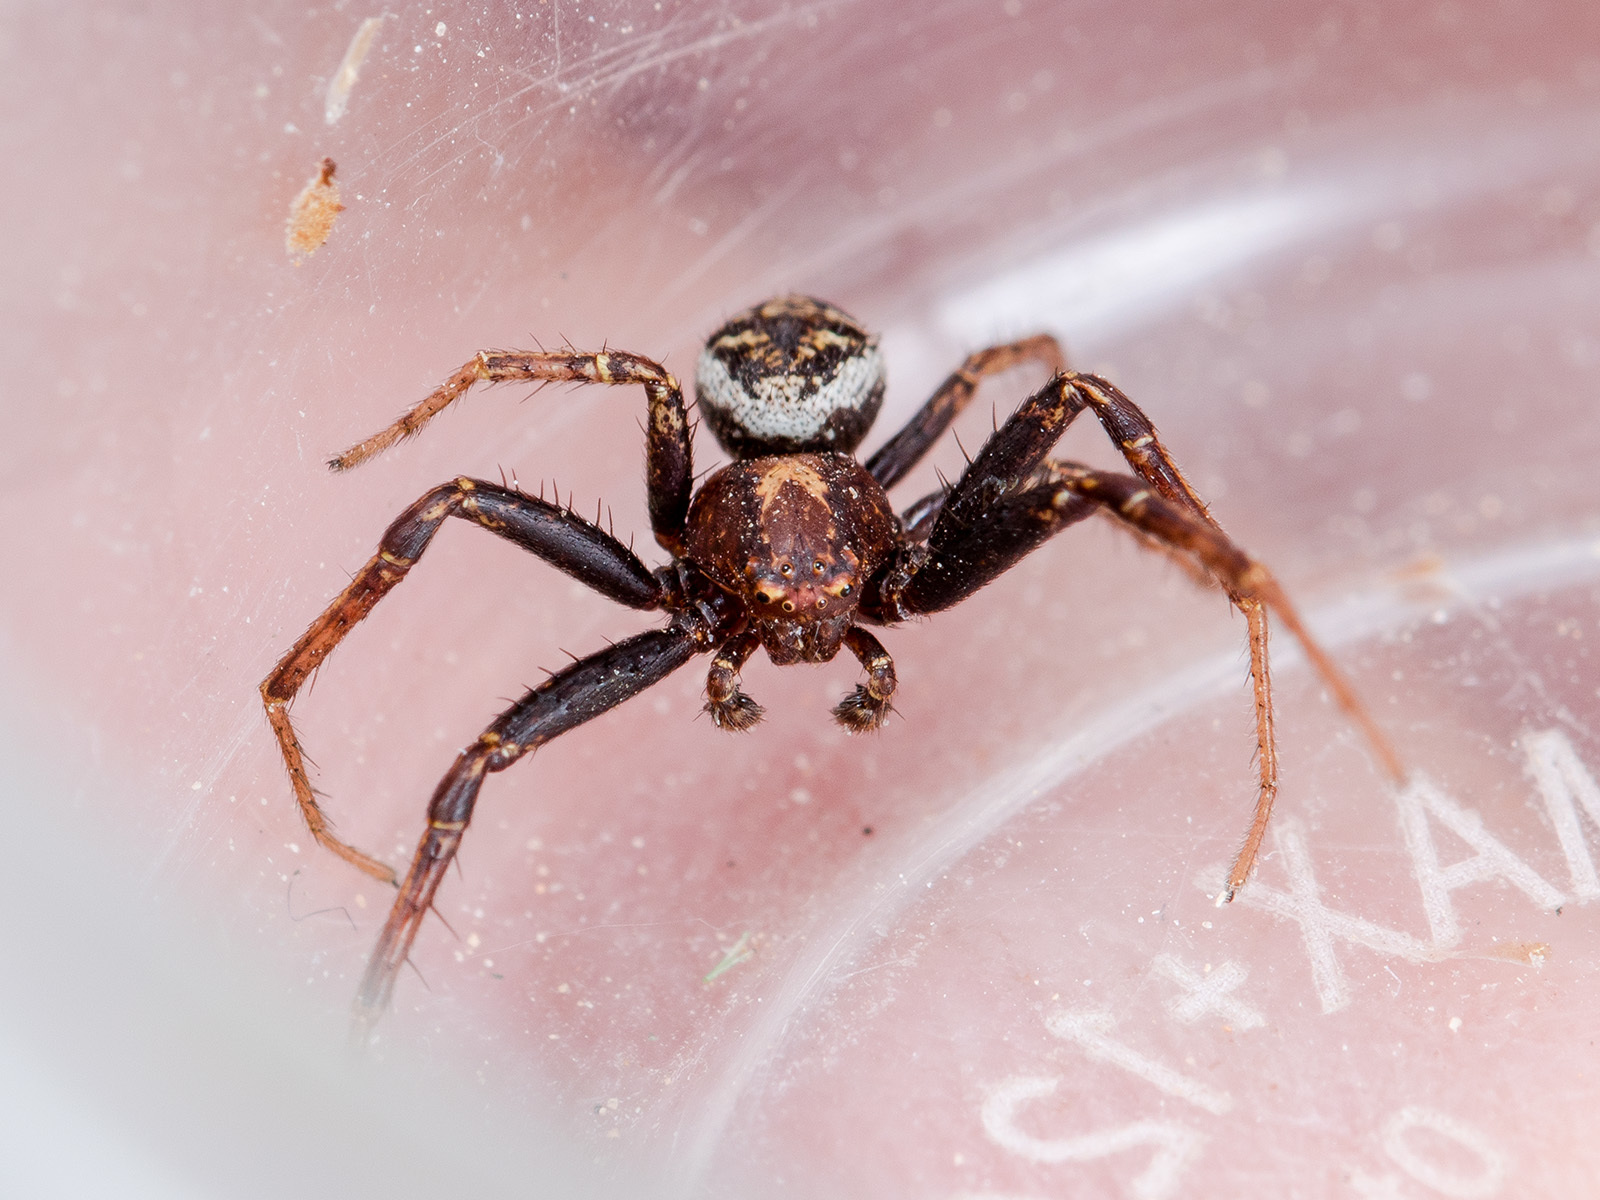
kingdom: Animalia
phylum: Arthropoda
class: Arachnida
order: Araneae
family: Thomisidae
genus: Xysticus
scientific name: Xysticus dzhungaricus
